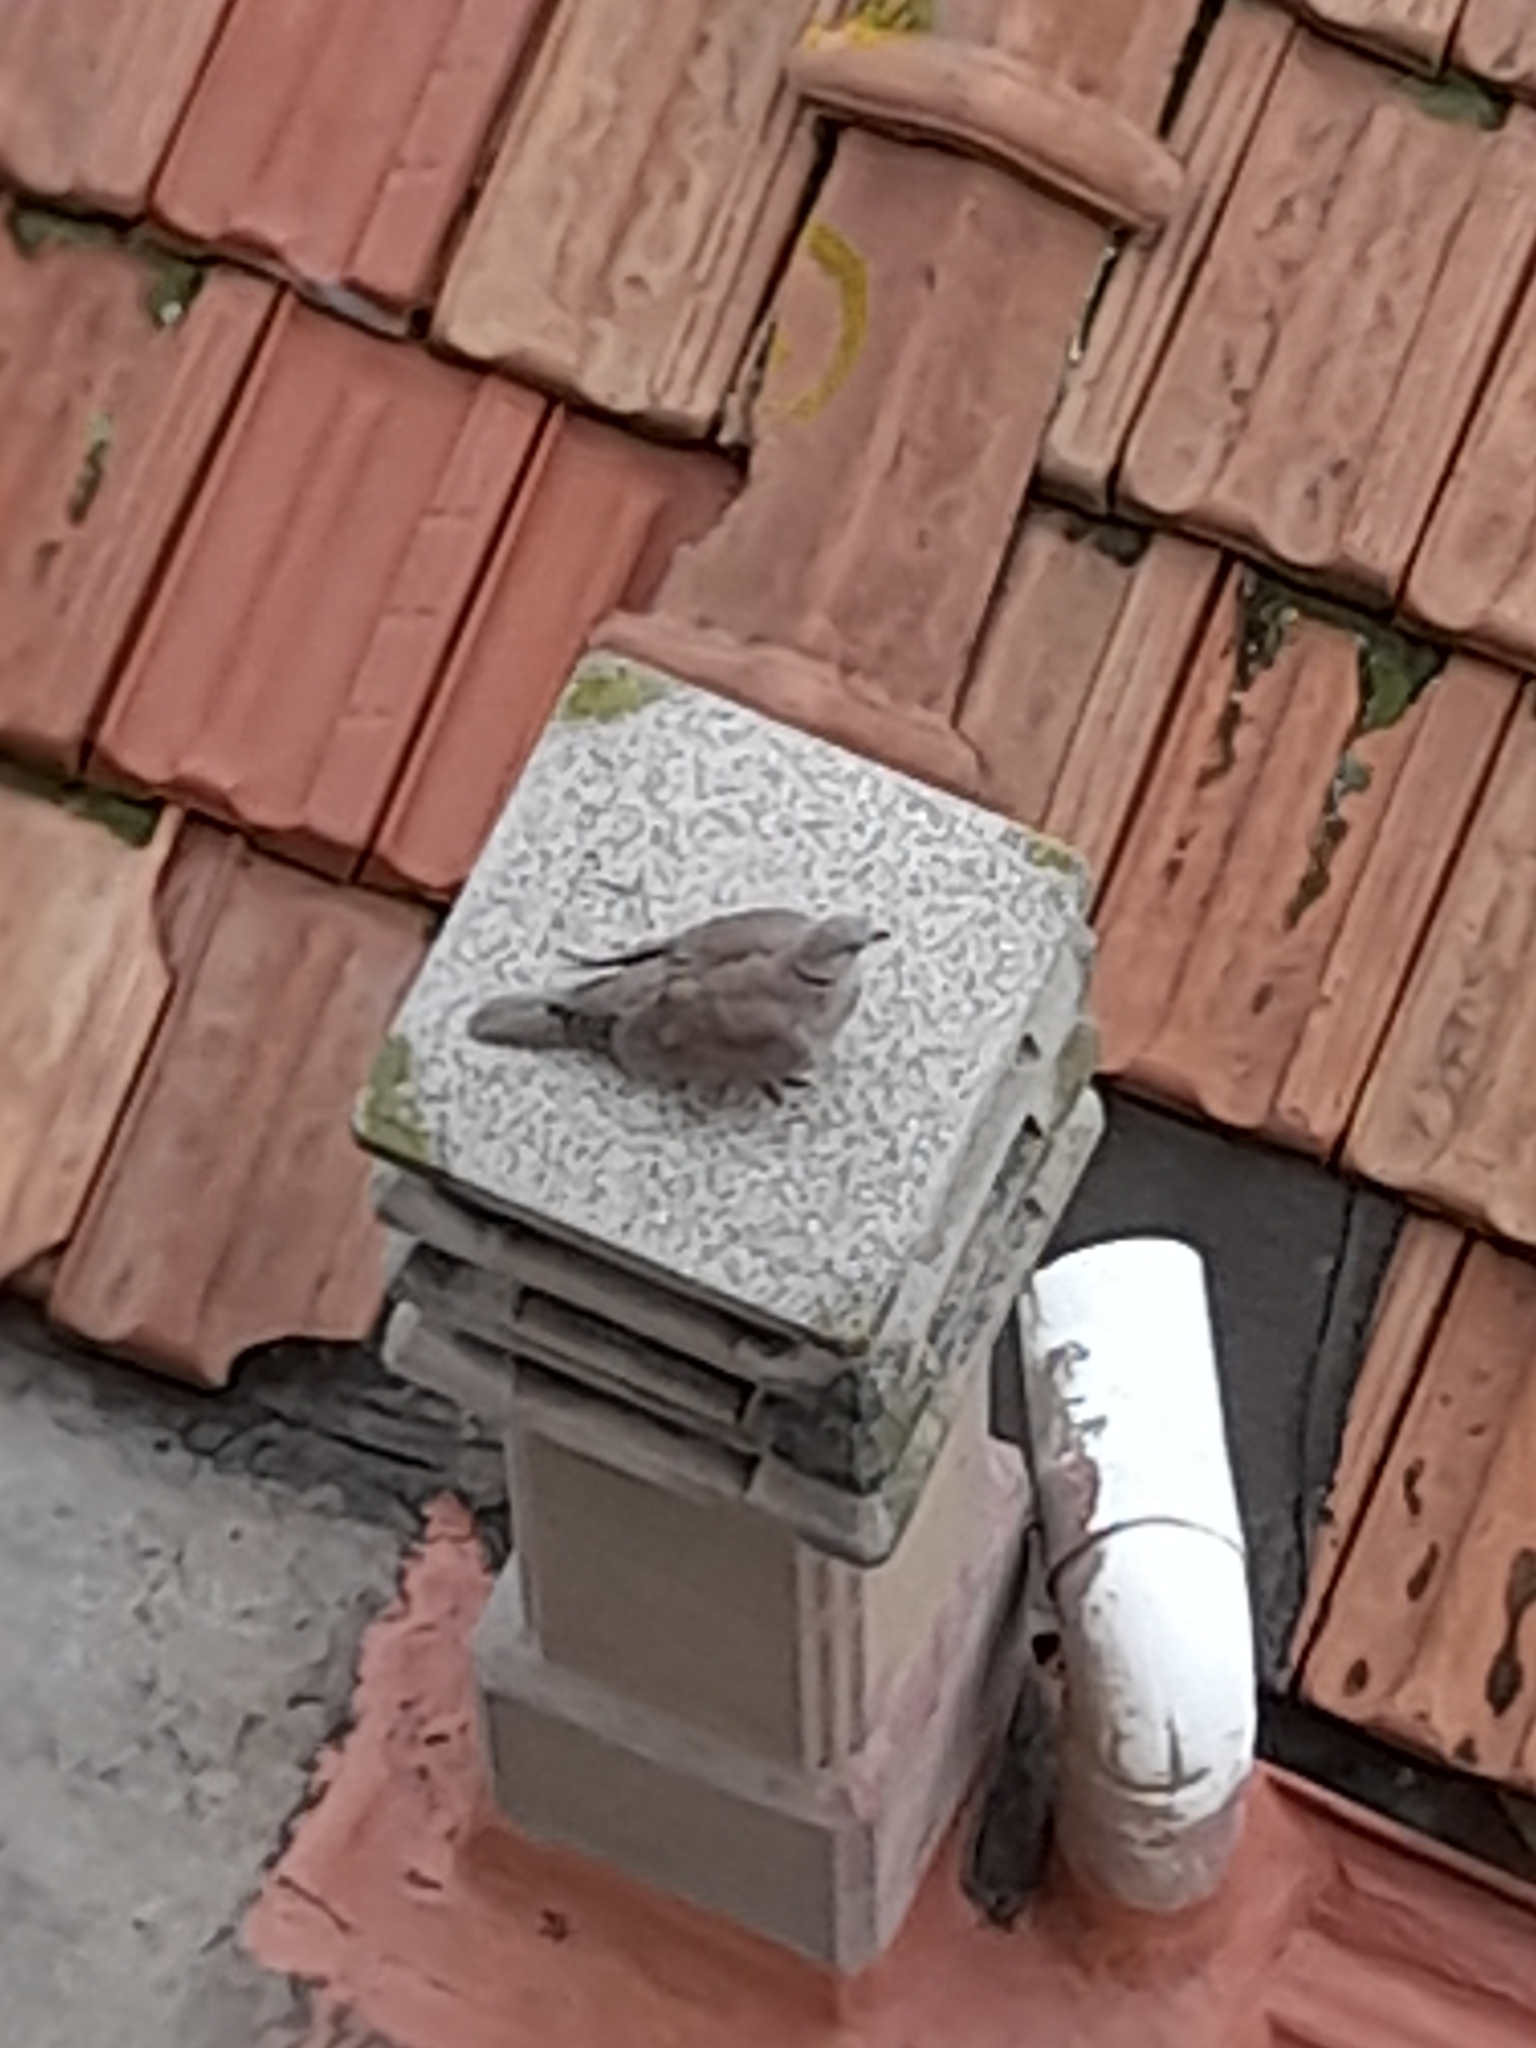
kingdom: Animalia
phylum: Chordata
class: Aves
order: Columbiformes
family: Columbidae
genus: Streptopelia
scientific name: Streptopelia decaocto
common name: Eurasian collared dove
